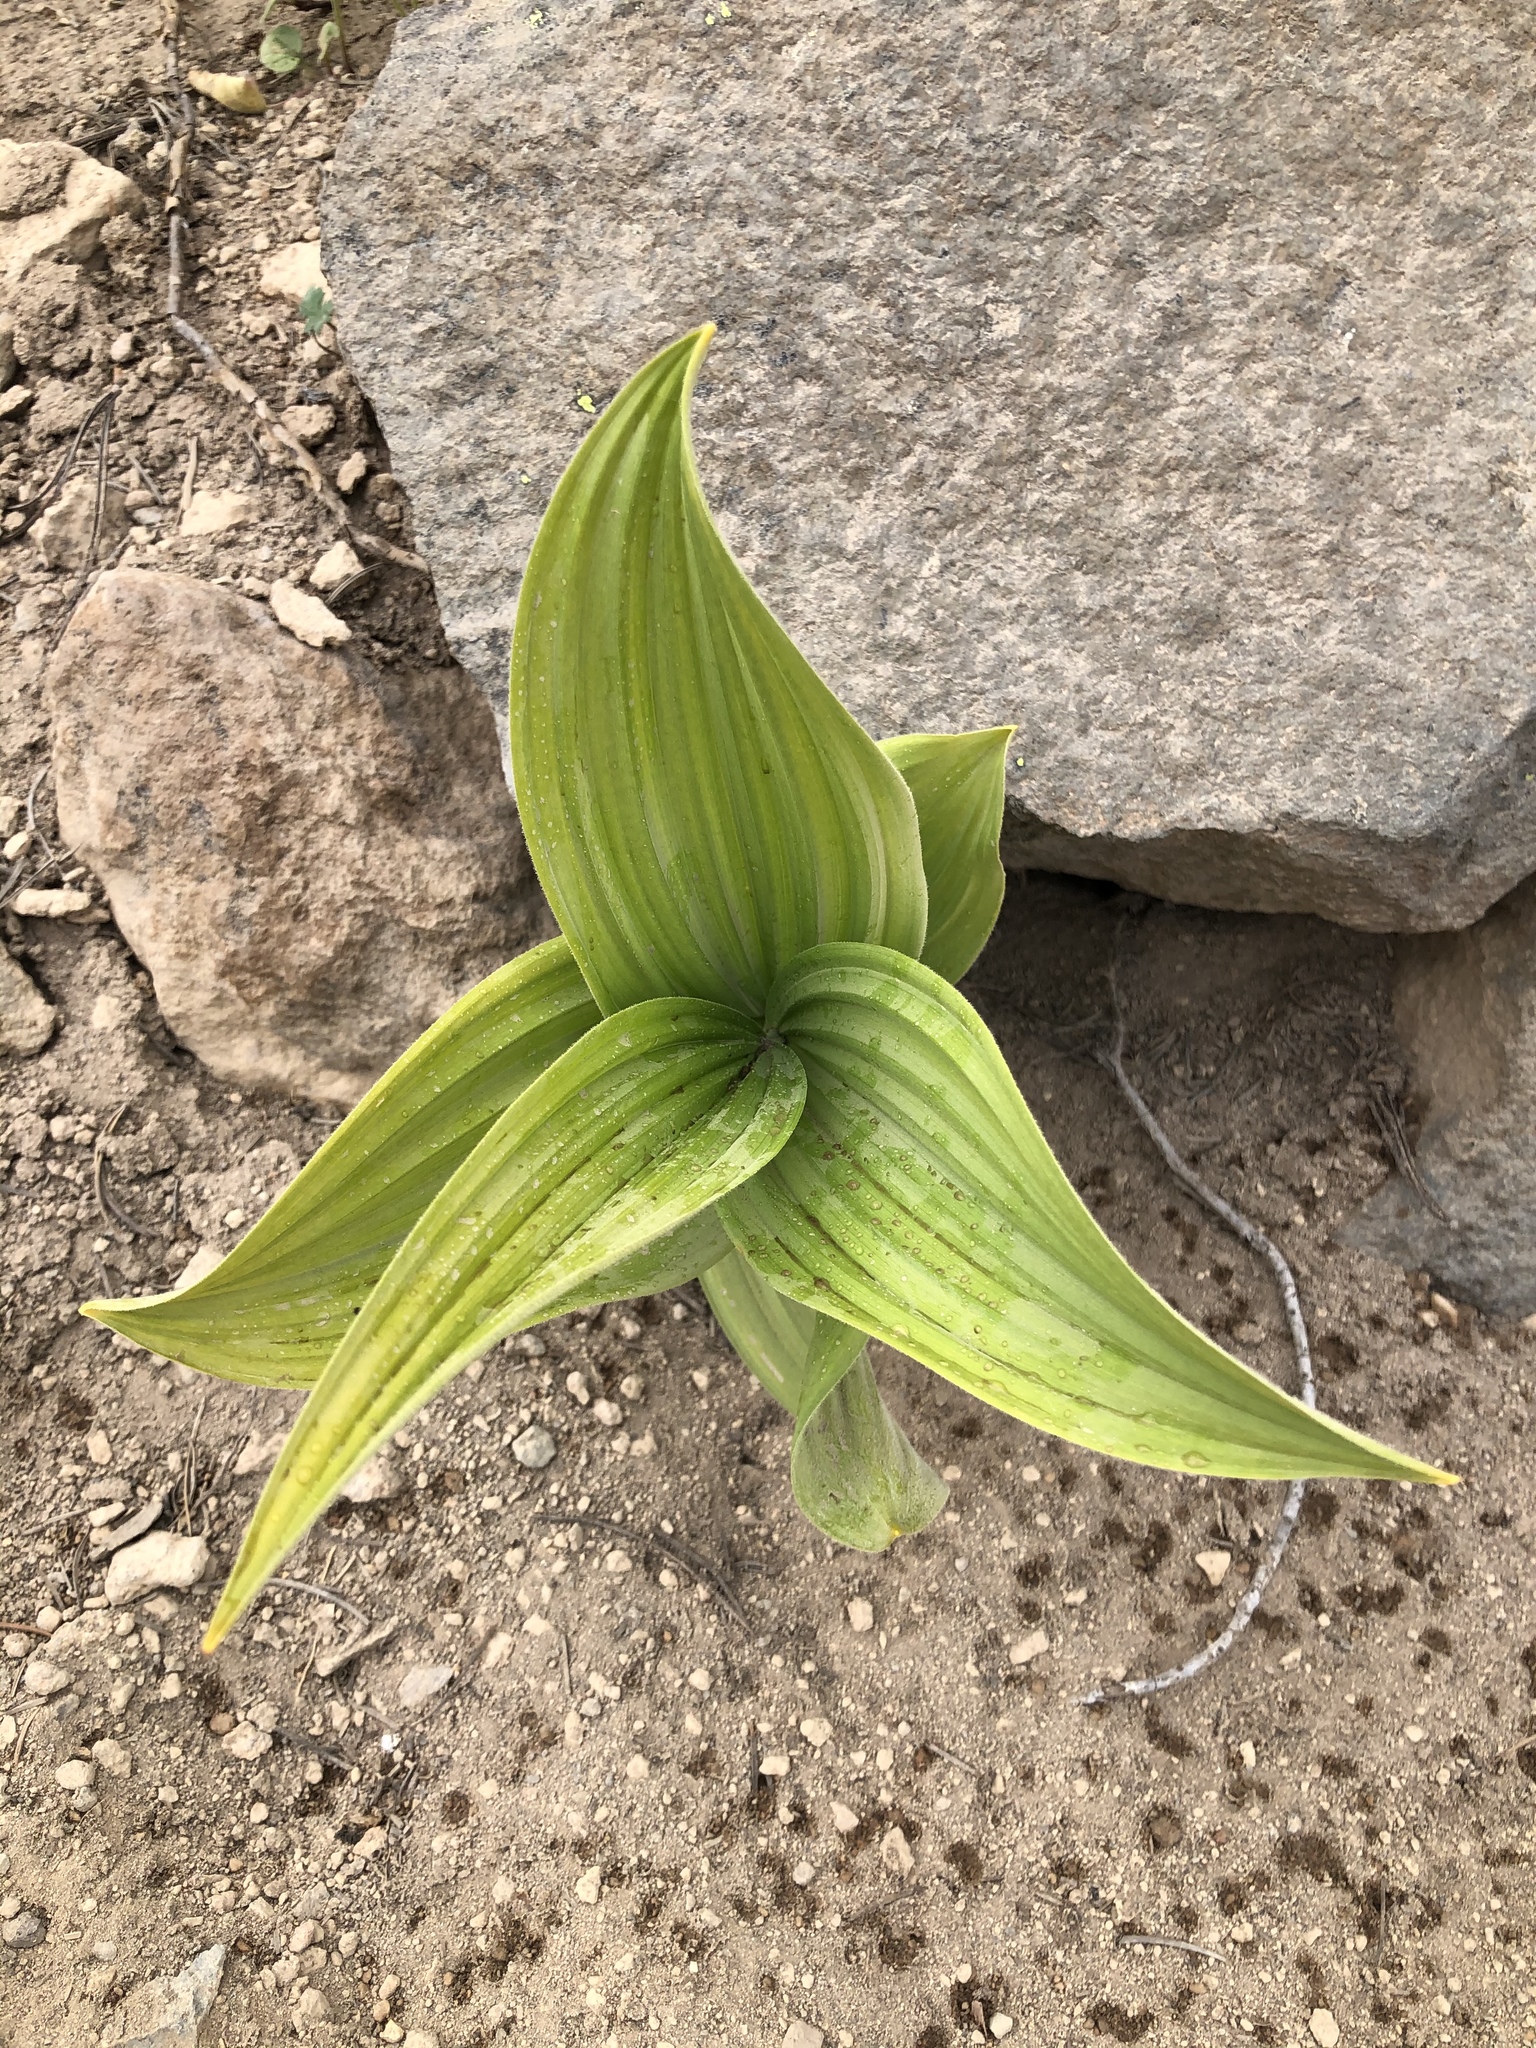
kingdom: Plantae
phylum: Tracheophyta
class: Liliopsida
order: Liliales
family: Melanthiaceae
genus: Veratrum
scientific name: Veratrum viride
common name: American false hellebore
